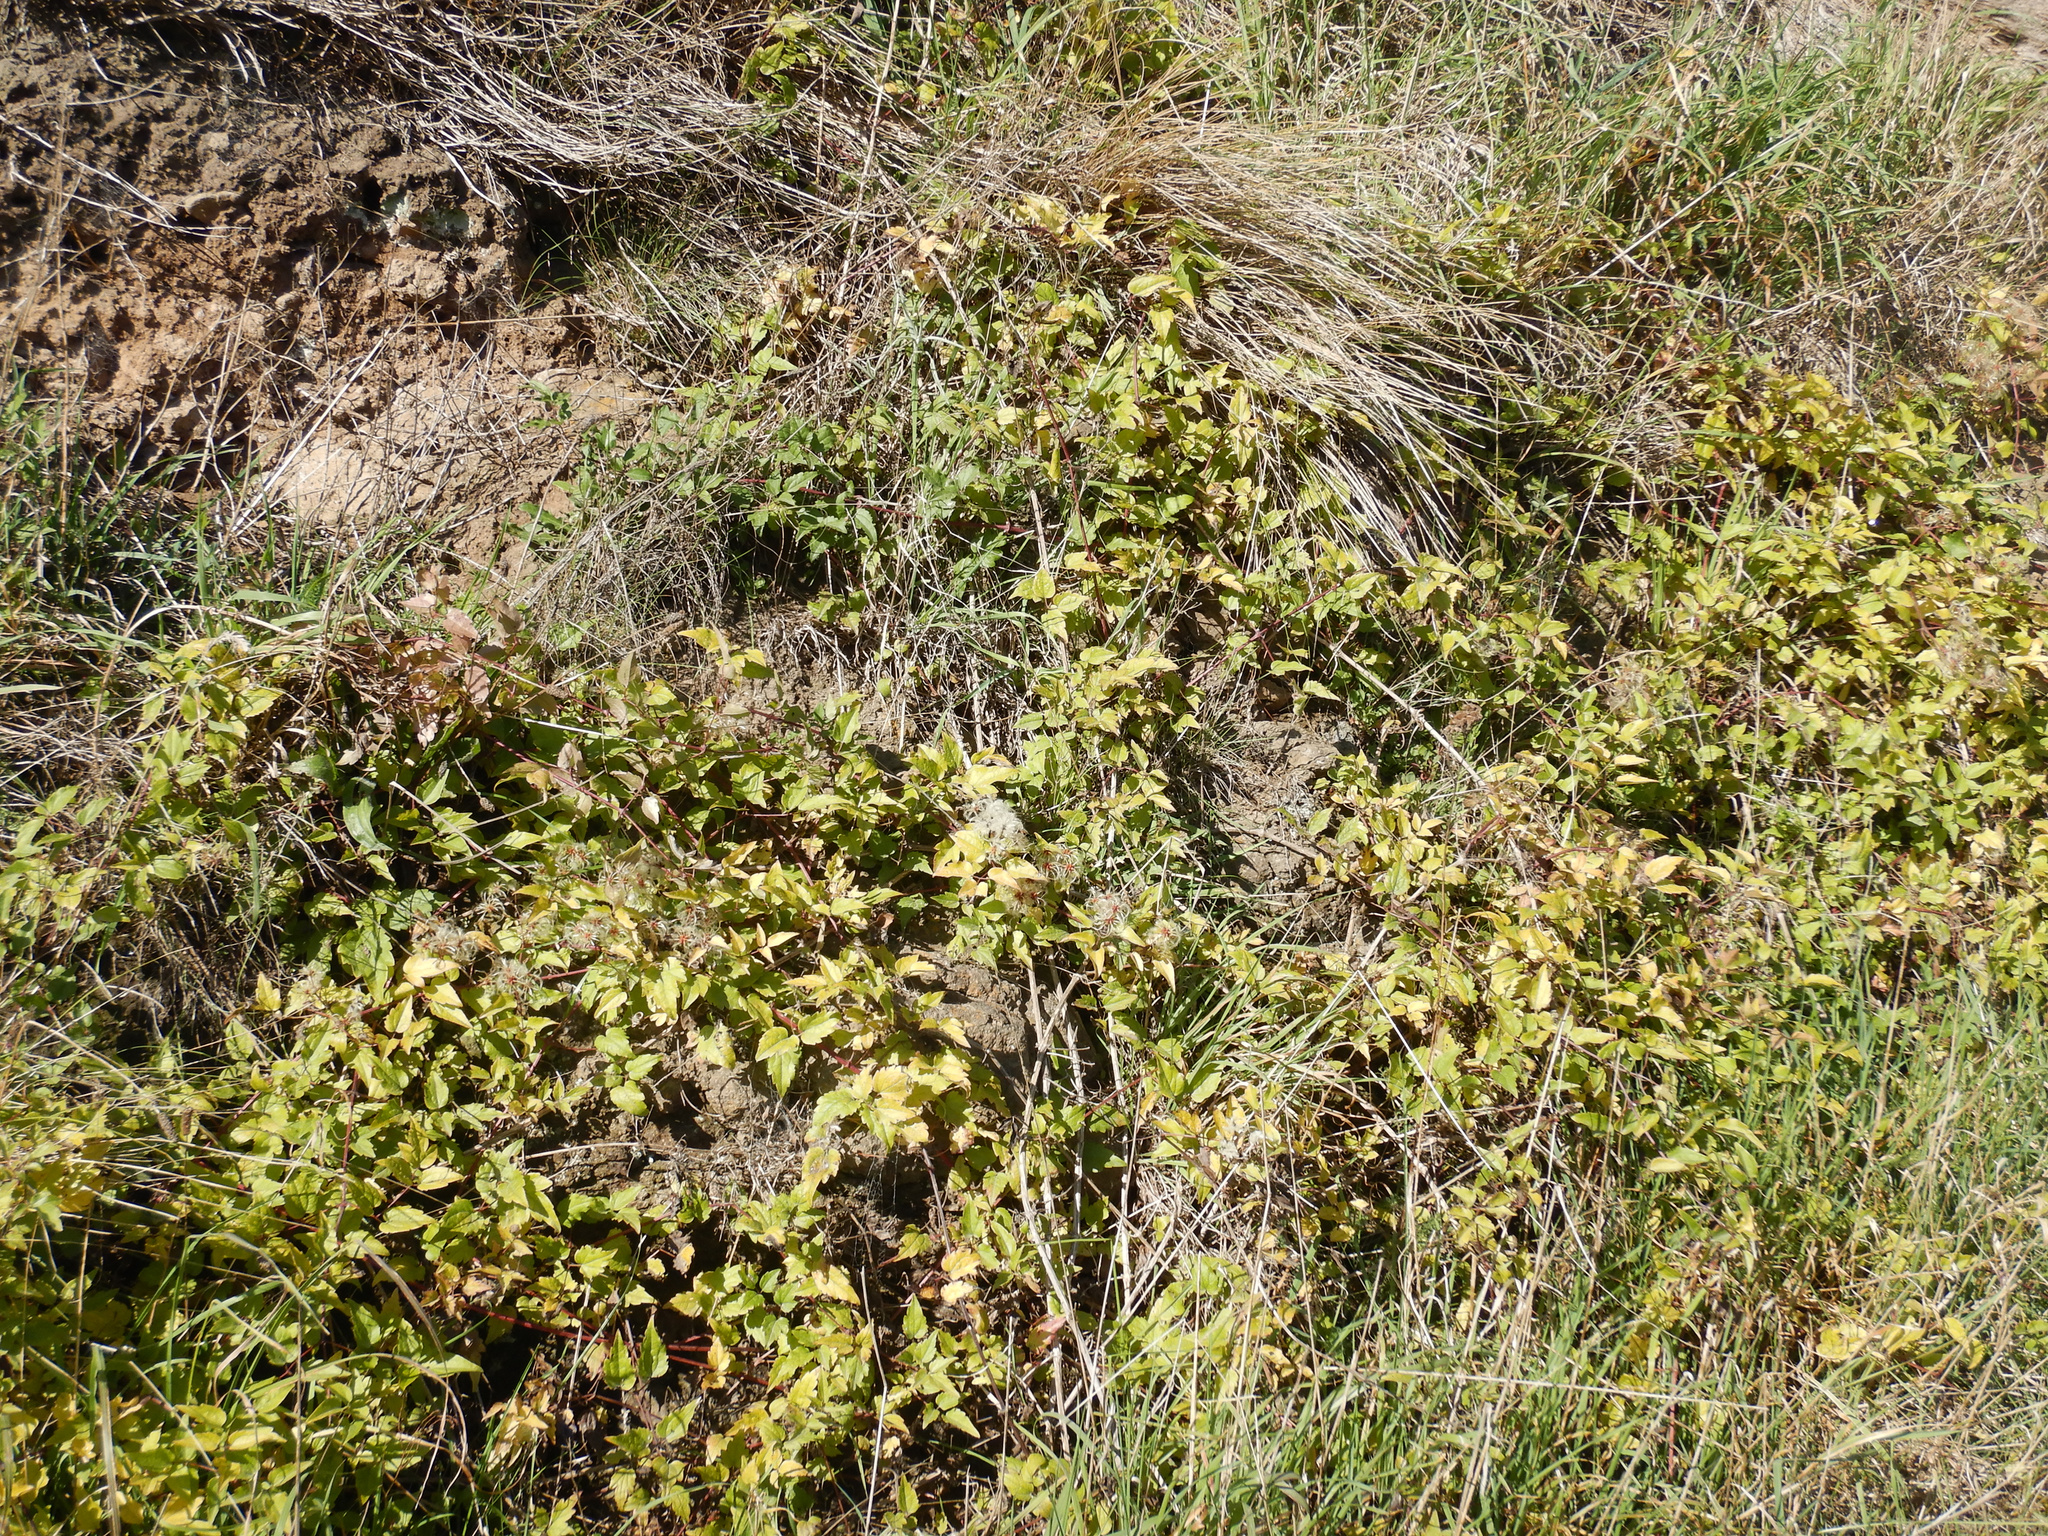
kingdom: Plantae
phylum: Tracheophyta
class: Magnoliopsida
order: Ranunculales
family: Ranunculaceae
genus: Clematis
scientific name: Clematis vitalba
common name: Evergreen clematis
